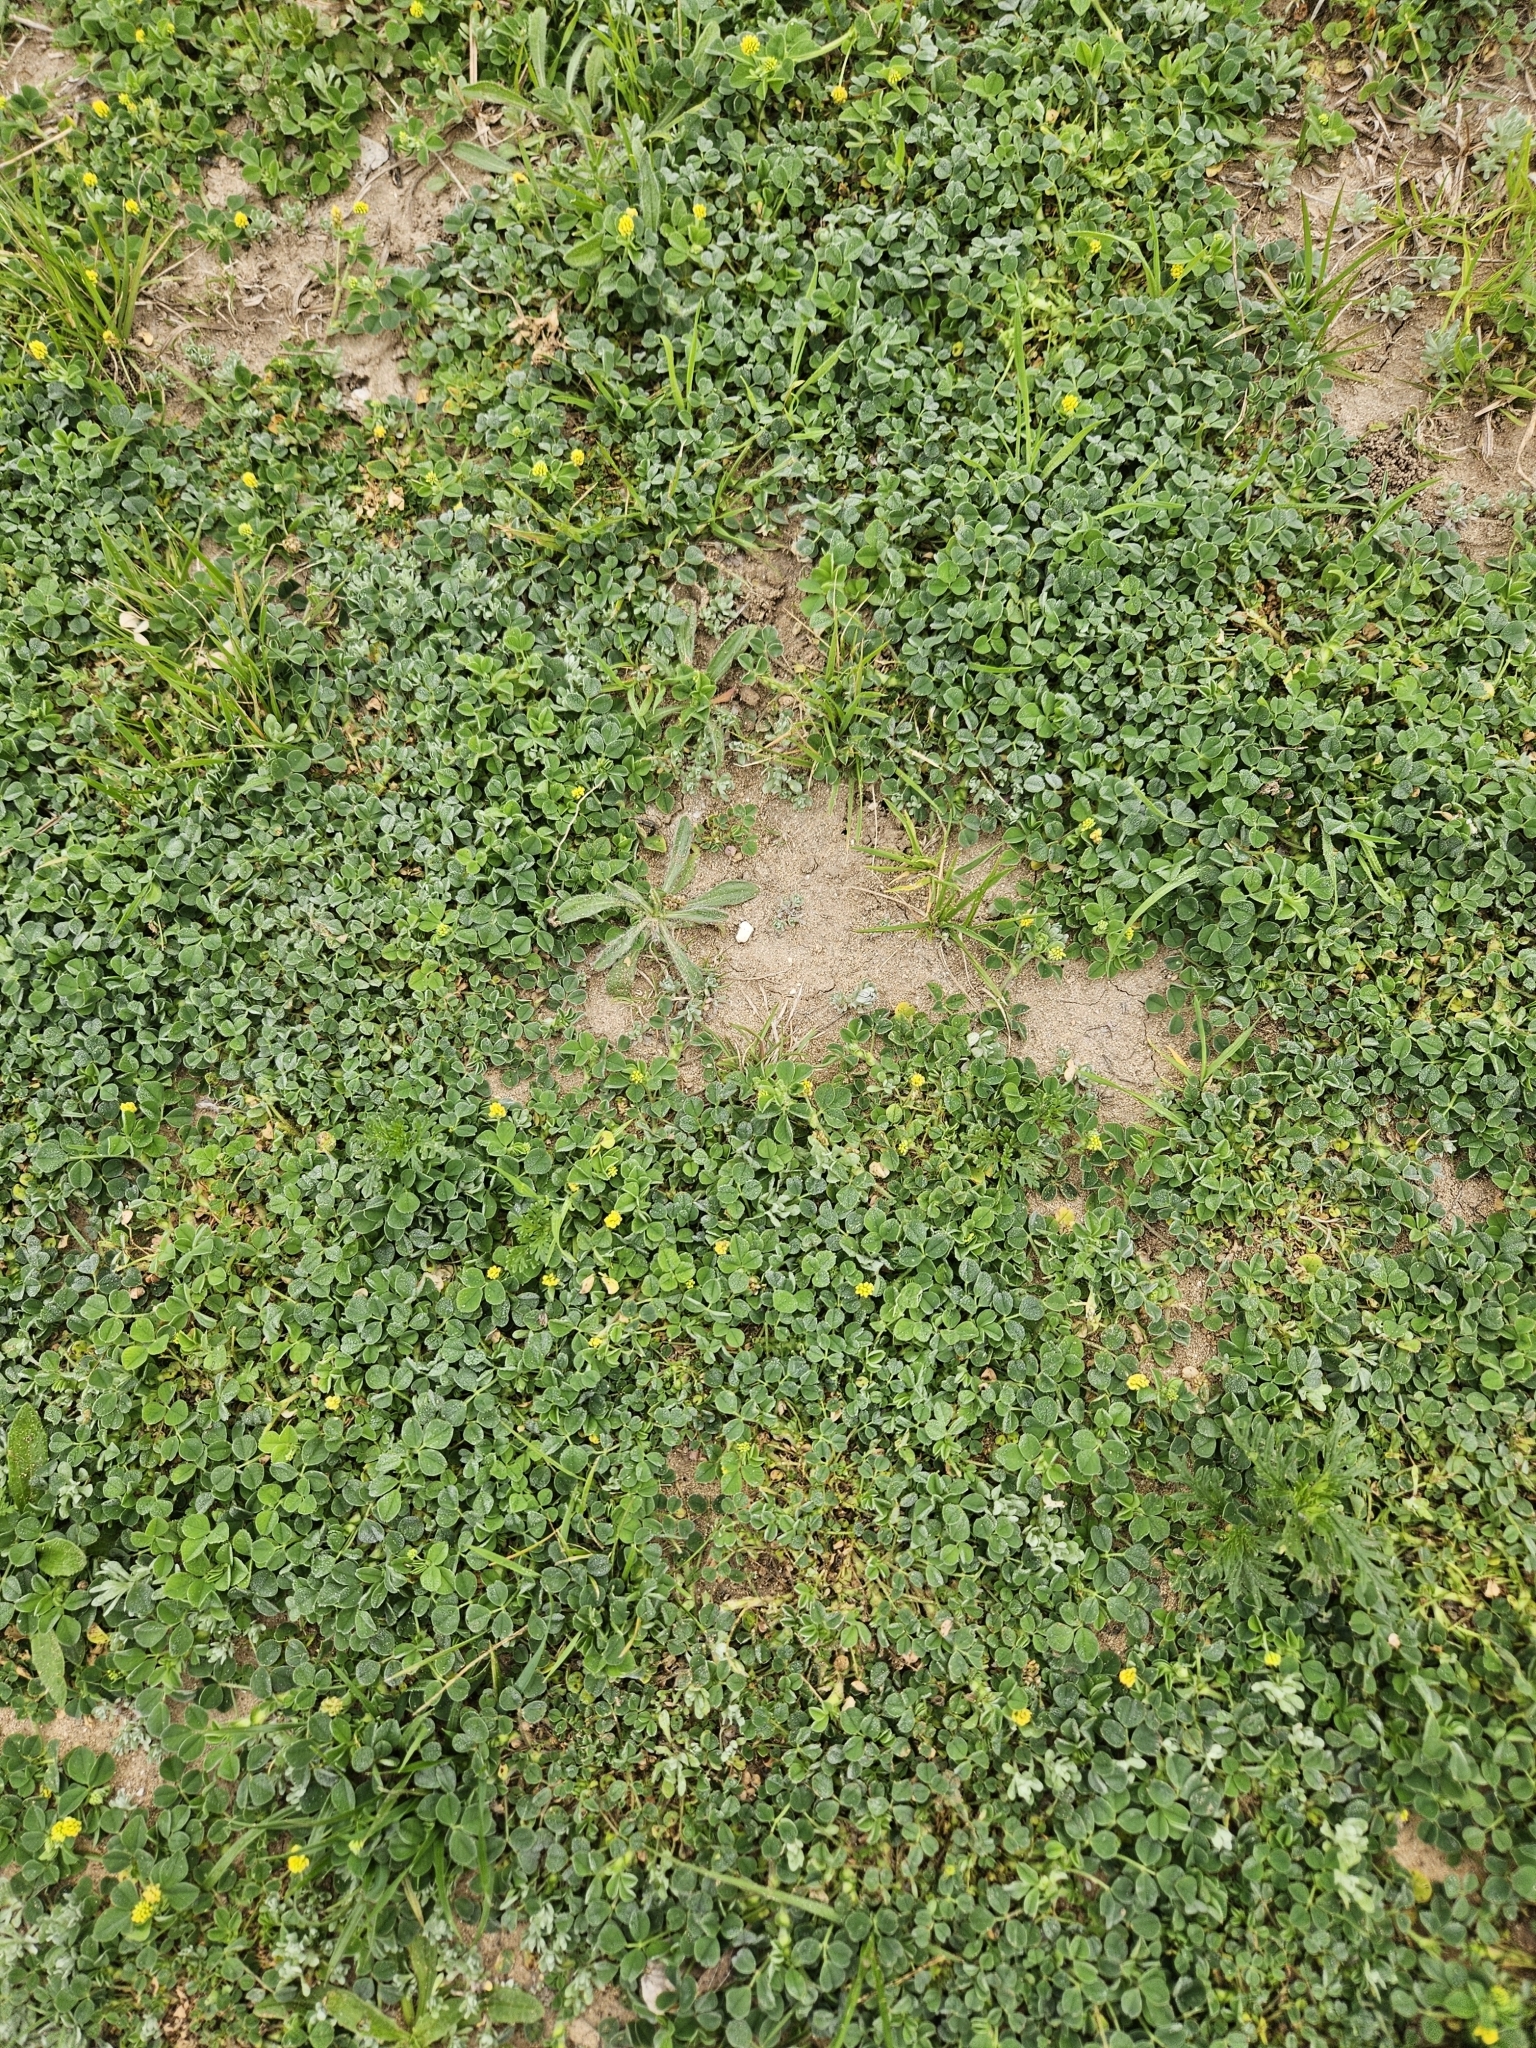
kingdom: Plantae
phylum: Tracheophyta
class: Magnoliopsida
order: Fabales
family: Fabaceae
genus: Medicago
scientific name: Medicago lupulina
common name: Black medick
